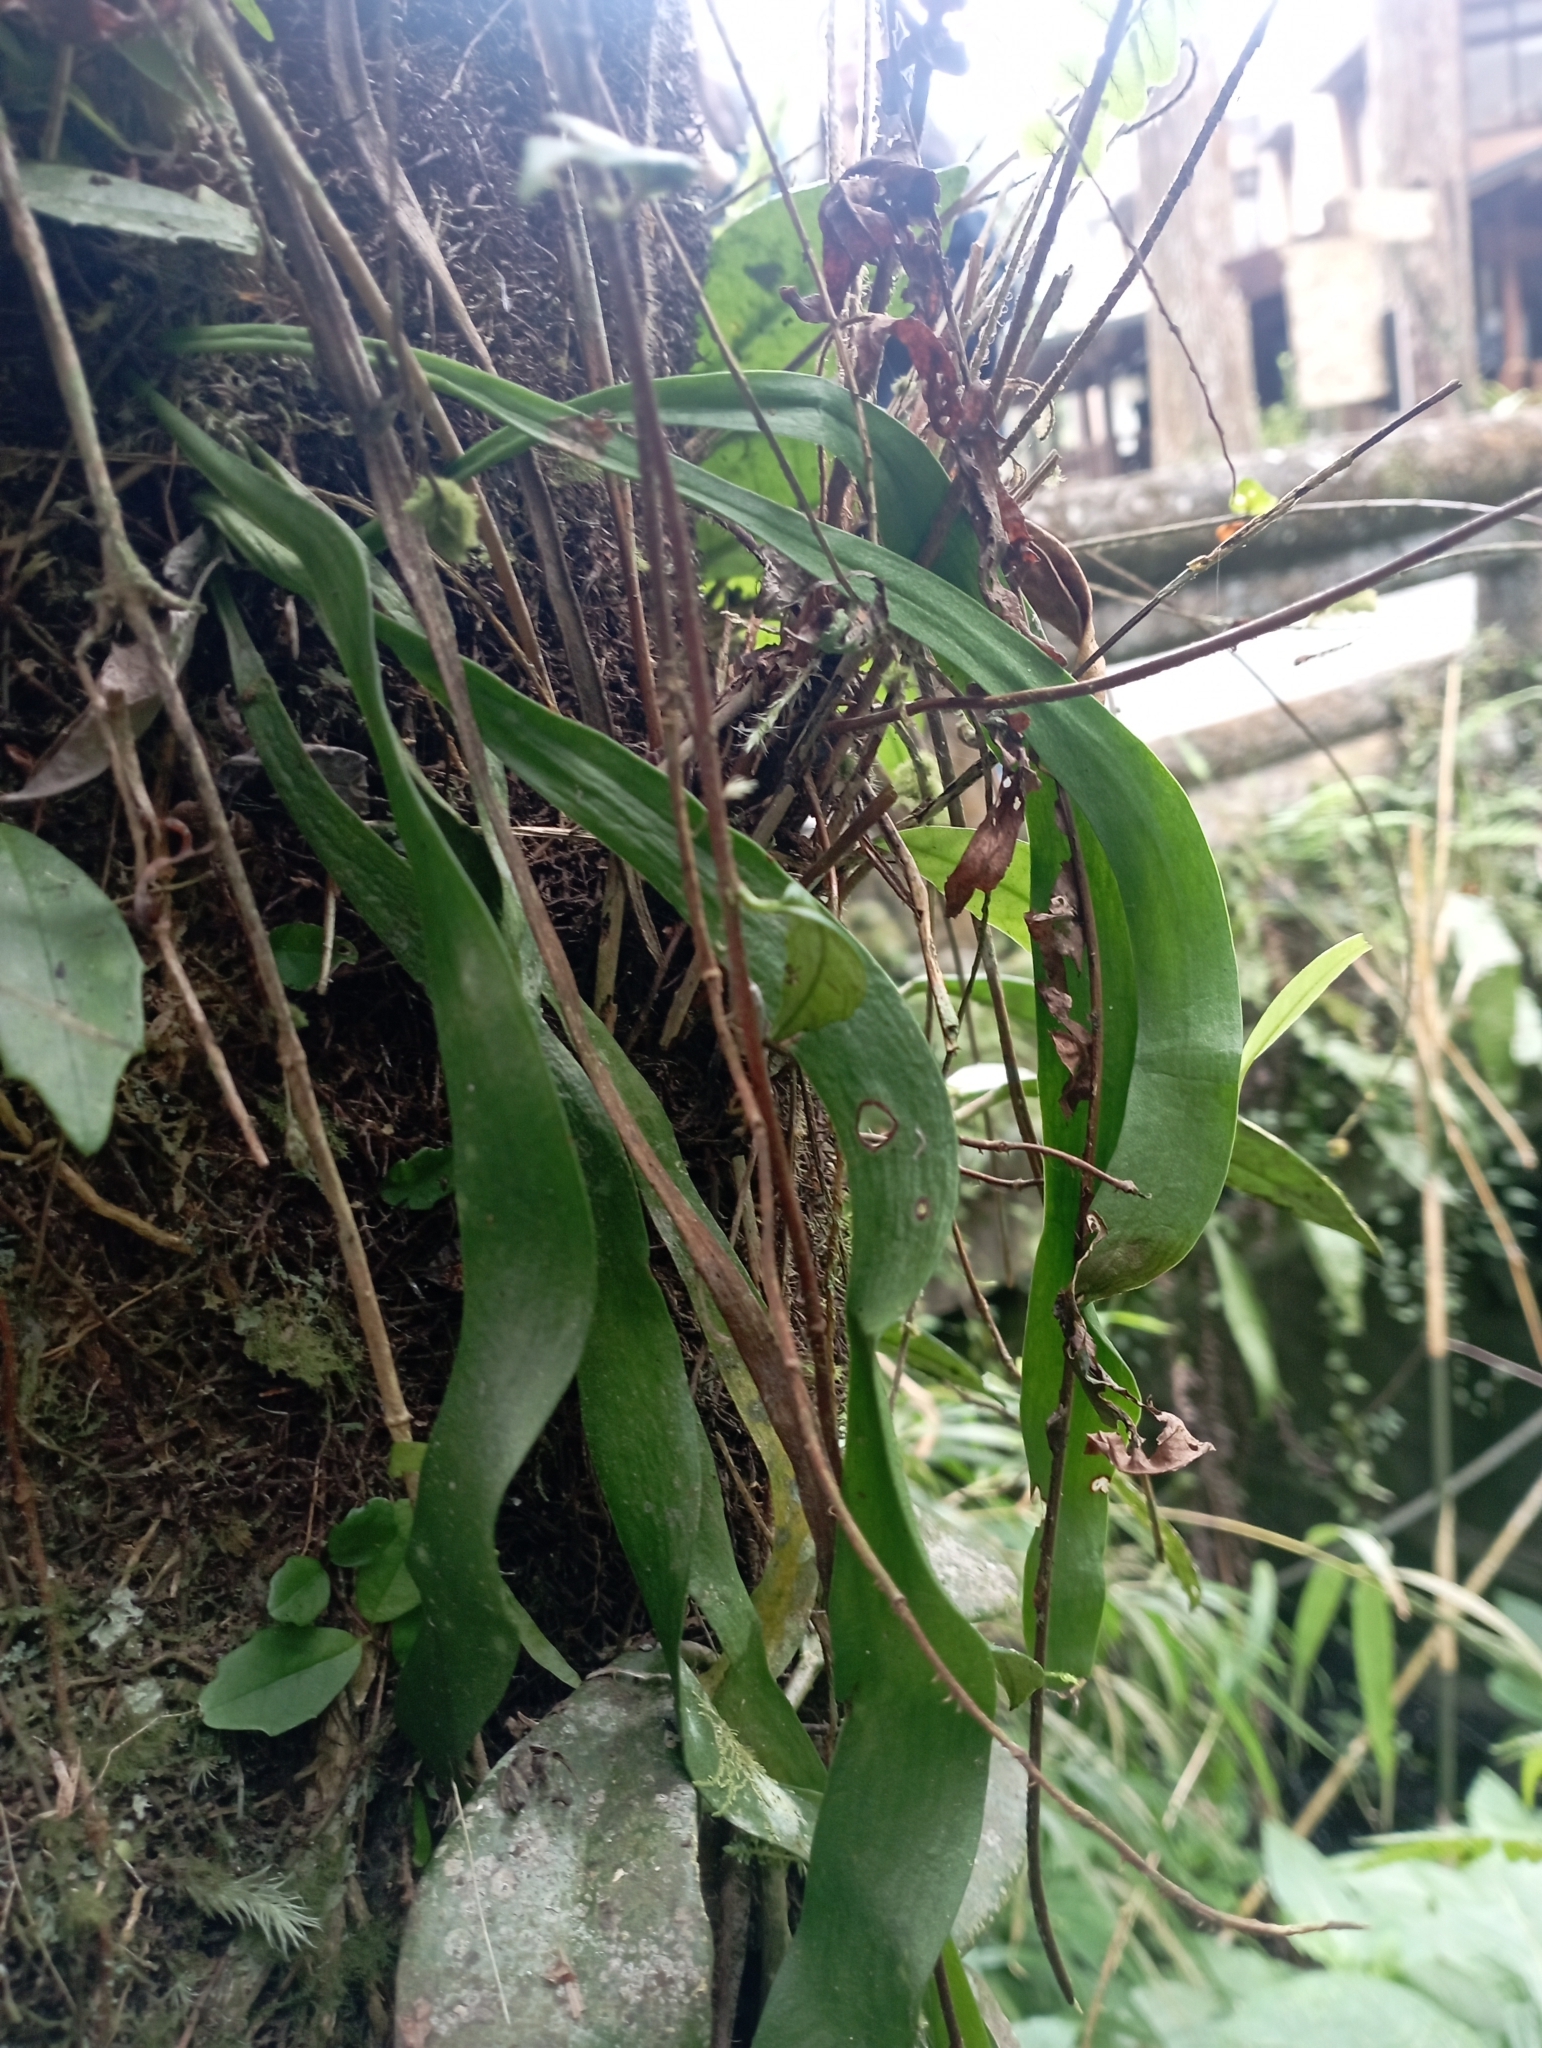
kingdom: Plantae
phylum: Tracheophyta
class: Polypodiopsida
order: Ophioglossales
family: Ophioglossaceae
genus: Ophioderma
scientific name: Ophioderma pendulum
